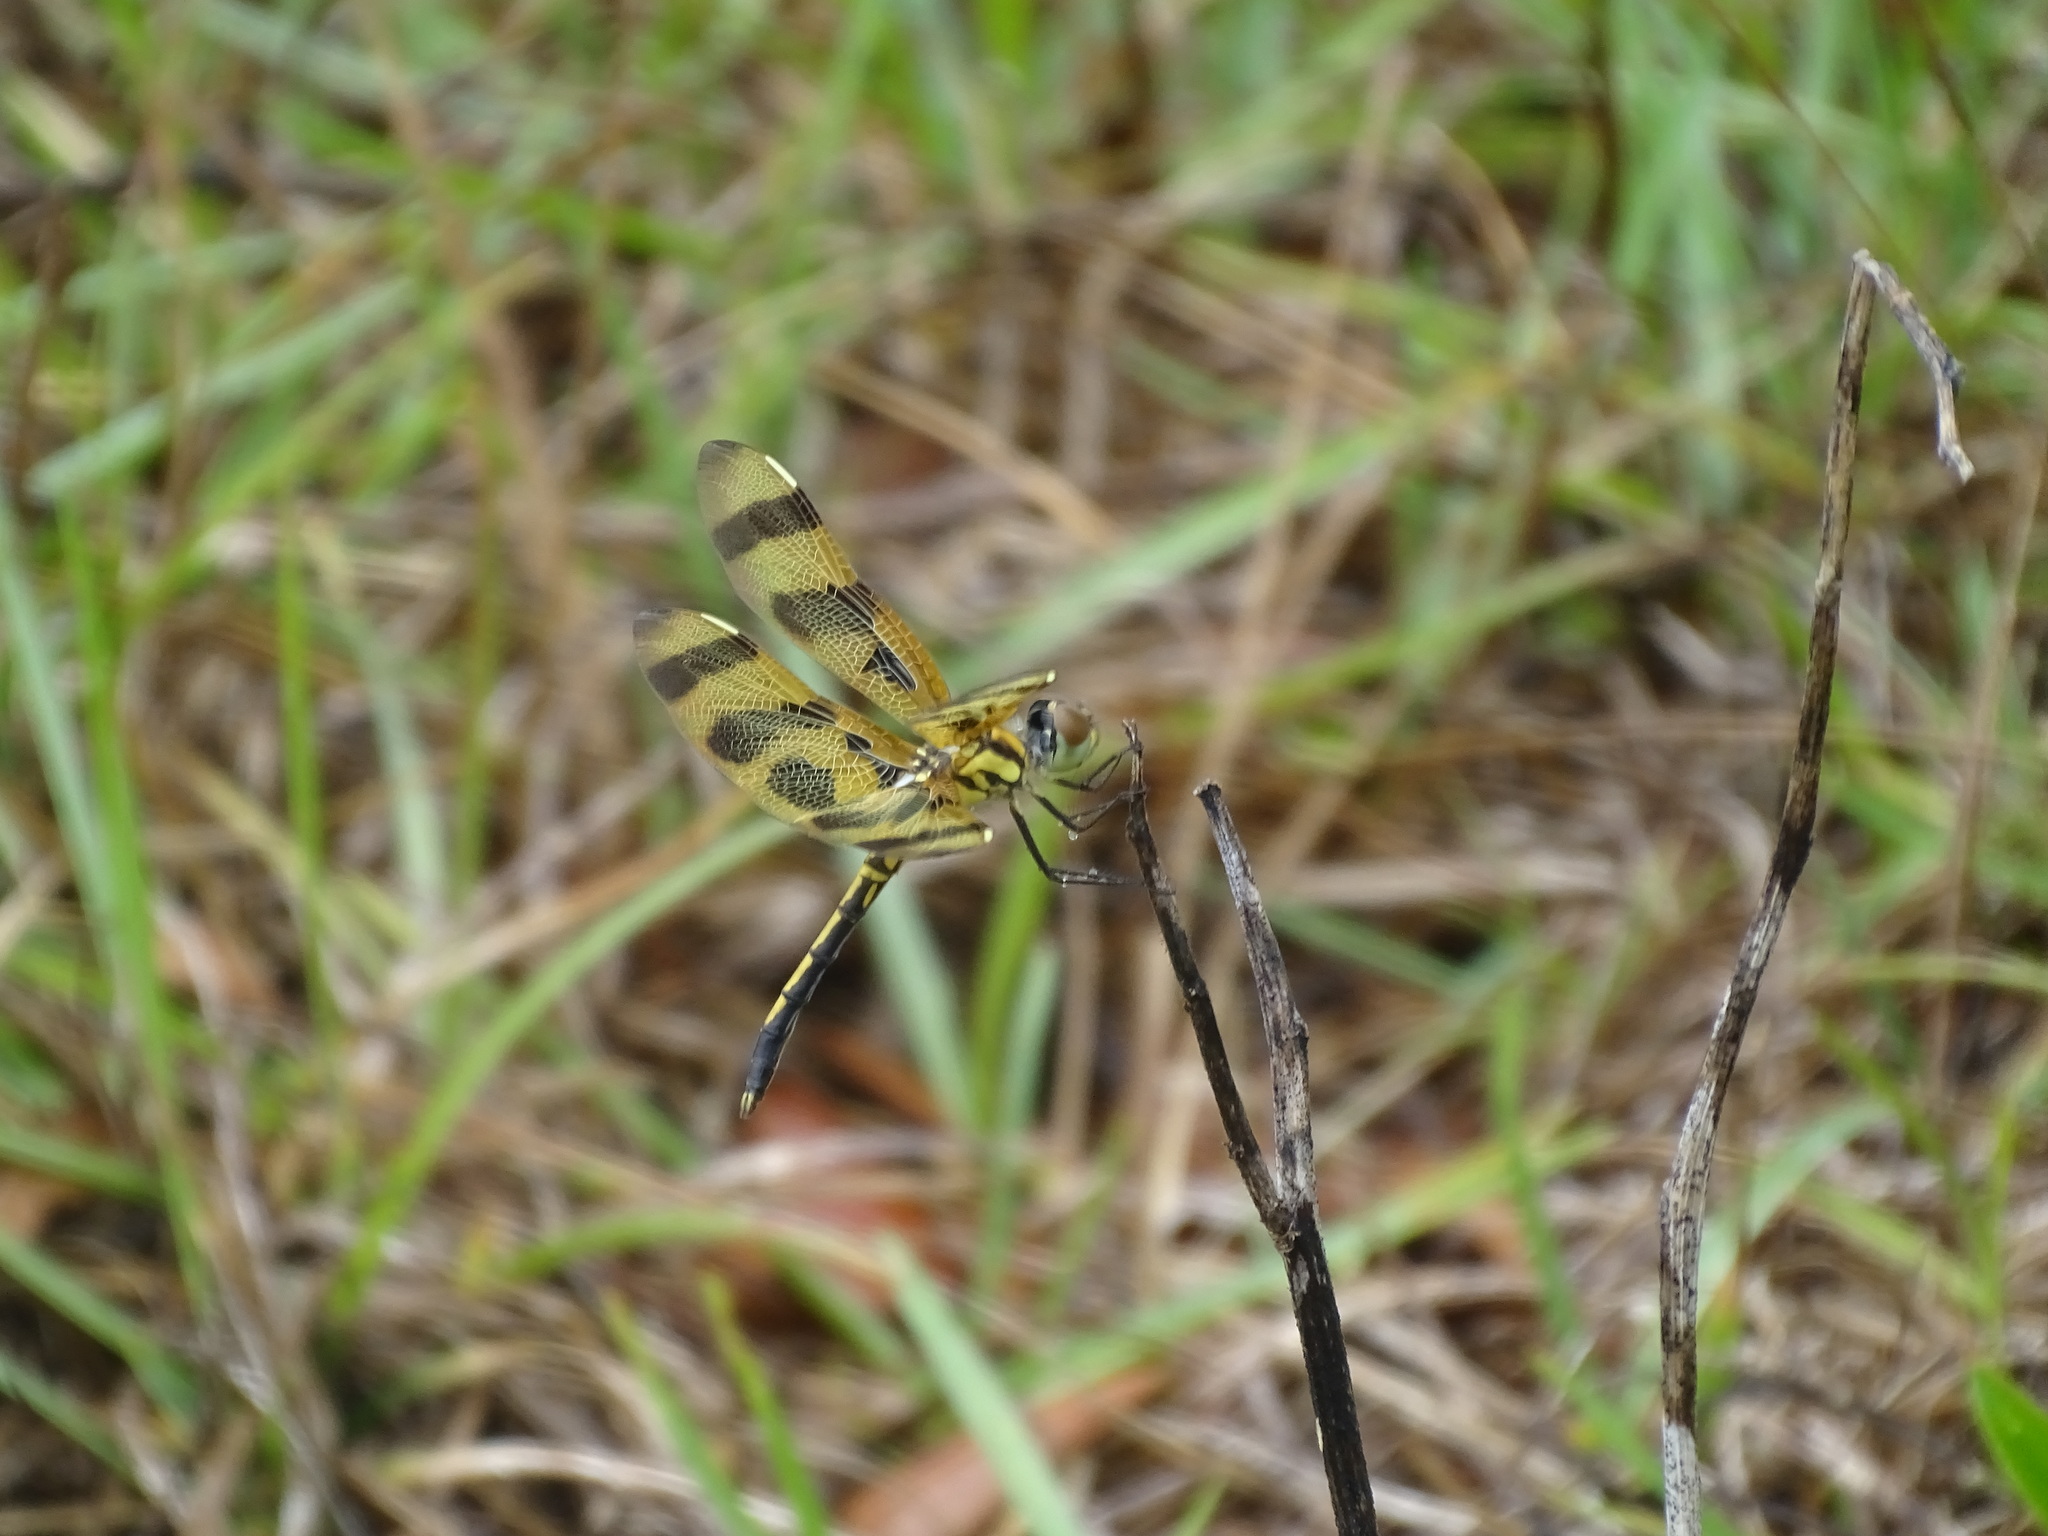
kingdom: Animalia
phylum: Arthropoda
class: Insecta
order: Odonata
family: Libellulidae
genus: Celithemis
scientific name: Celithemis eponina
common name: Halloween pennant
